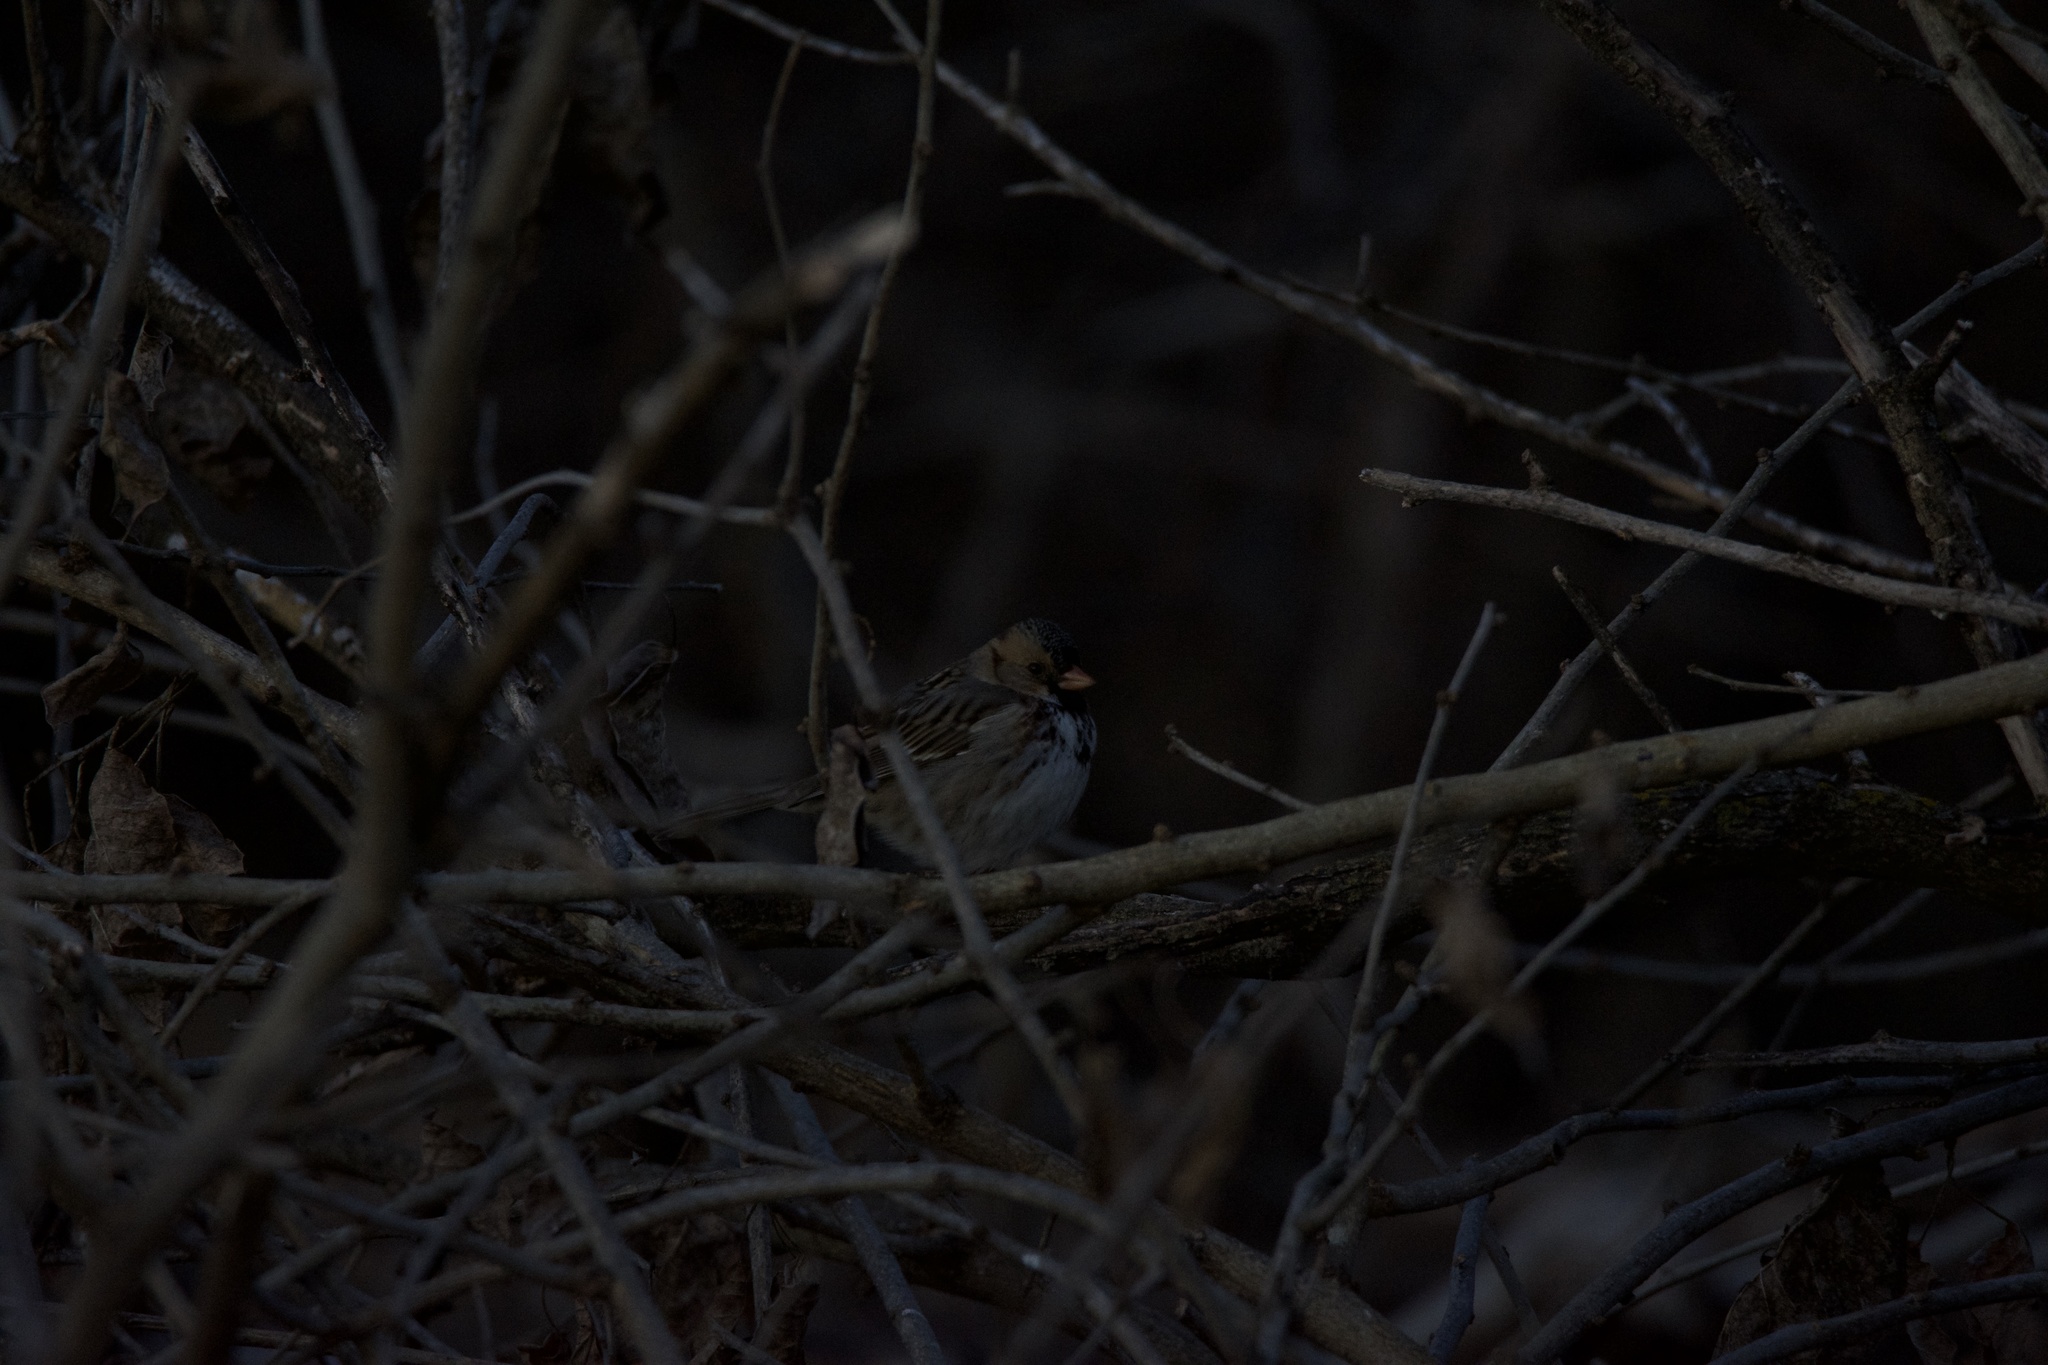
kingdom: Animalia
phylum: Chordata
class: Aves
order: Passeriformes
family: Passerellidae
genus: Zonotrichia
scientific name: Zonotrichia querula
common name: Harris's sparrow
